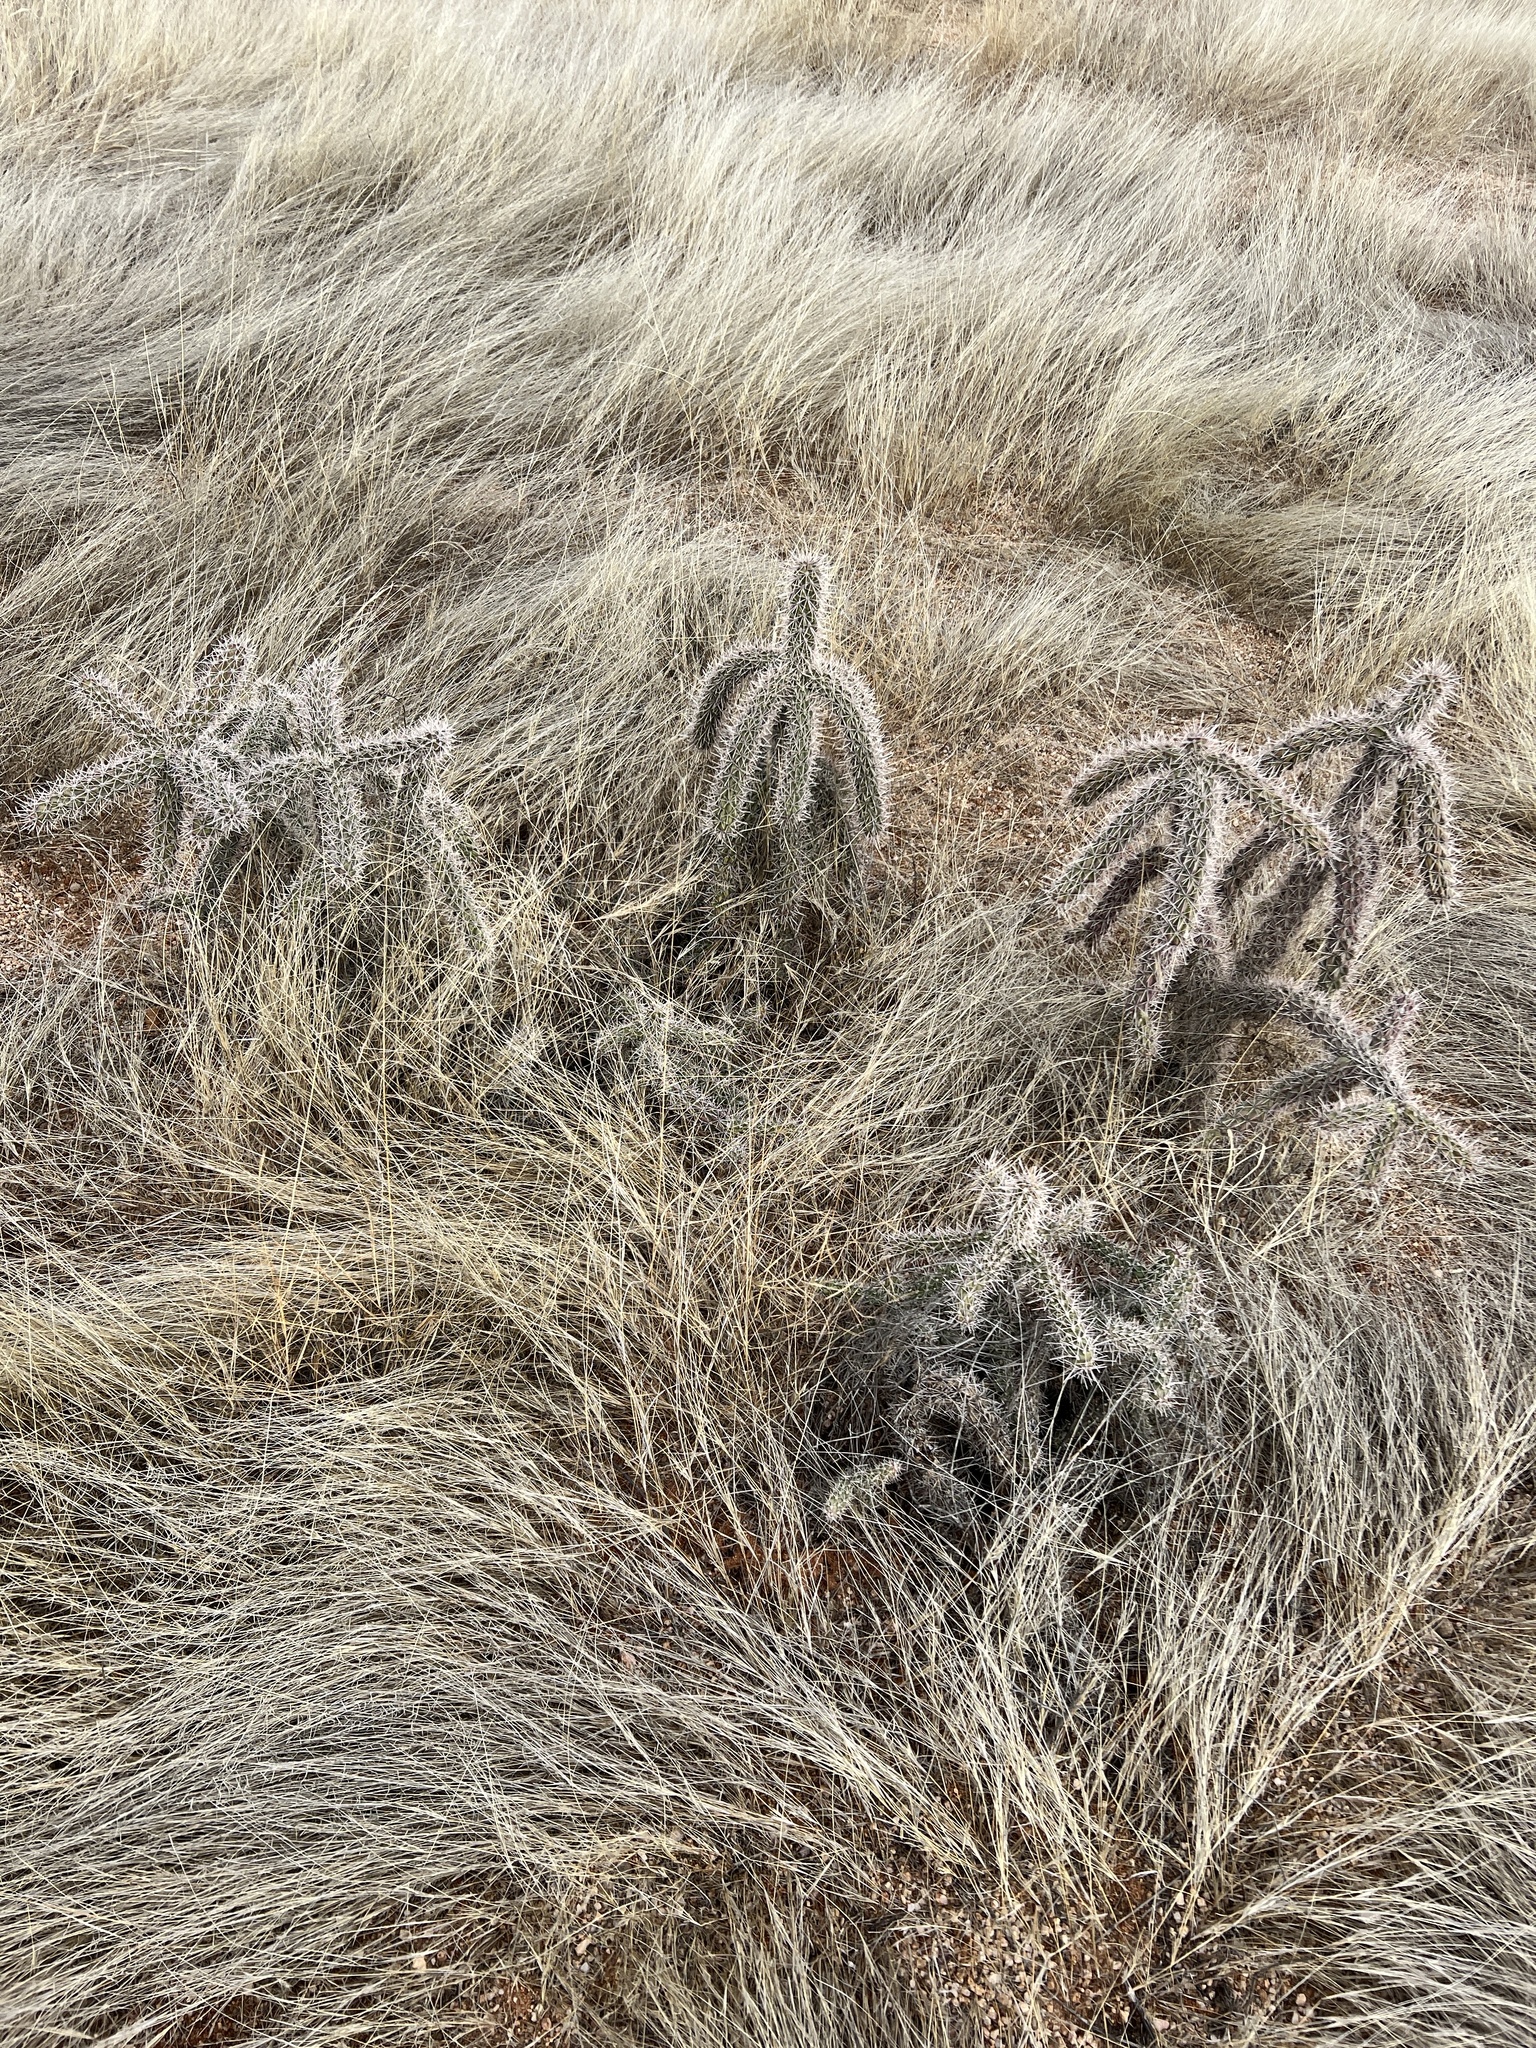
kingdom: Plantae
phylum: Tracheophyta
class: Magnoliopsida
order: Caryophyllales
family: Cactaceae
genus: Cylindropuntia
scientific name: Cylindropuntia imbricata
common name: Candelabrum cactus
